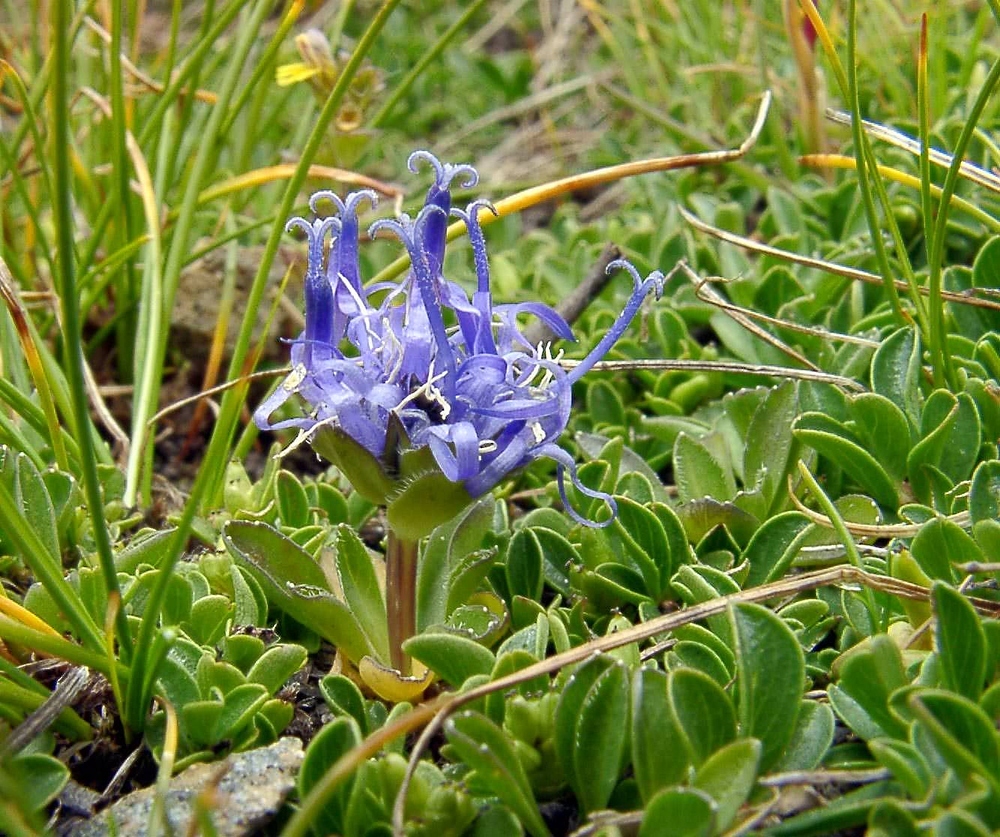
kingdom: Plantae
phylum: Tracheophyta
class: Magnoliopsida
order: Asterales
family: Campanulaceae
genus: Phyteuma
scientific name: Phyteuma globulariifolium
